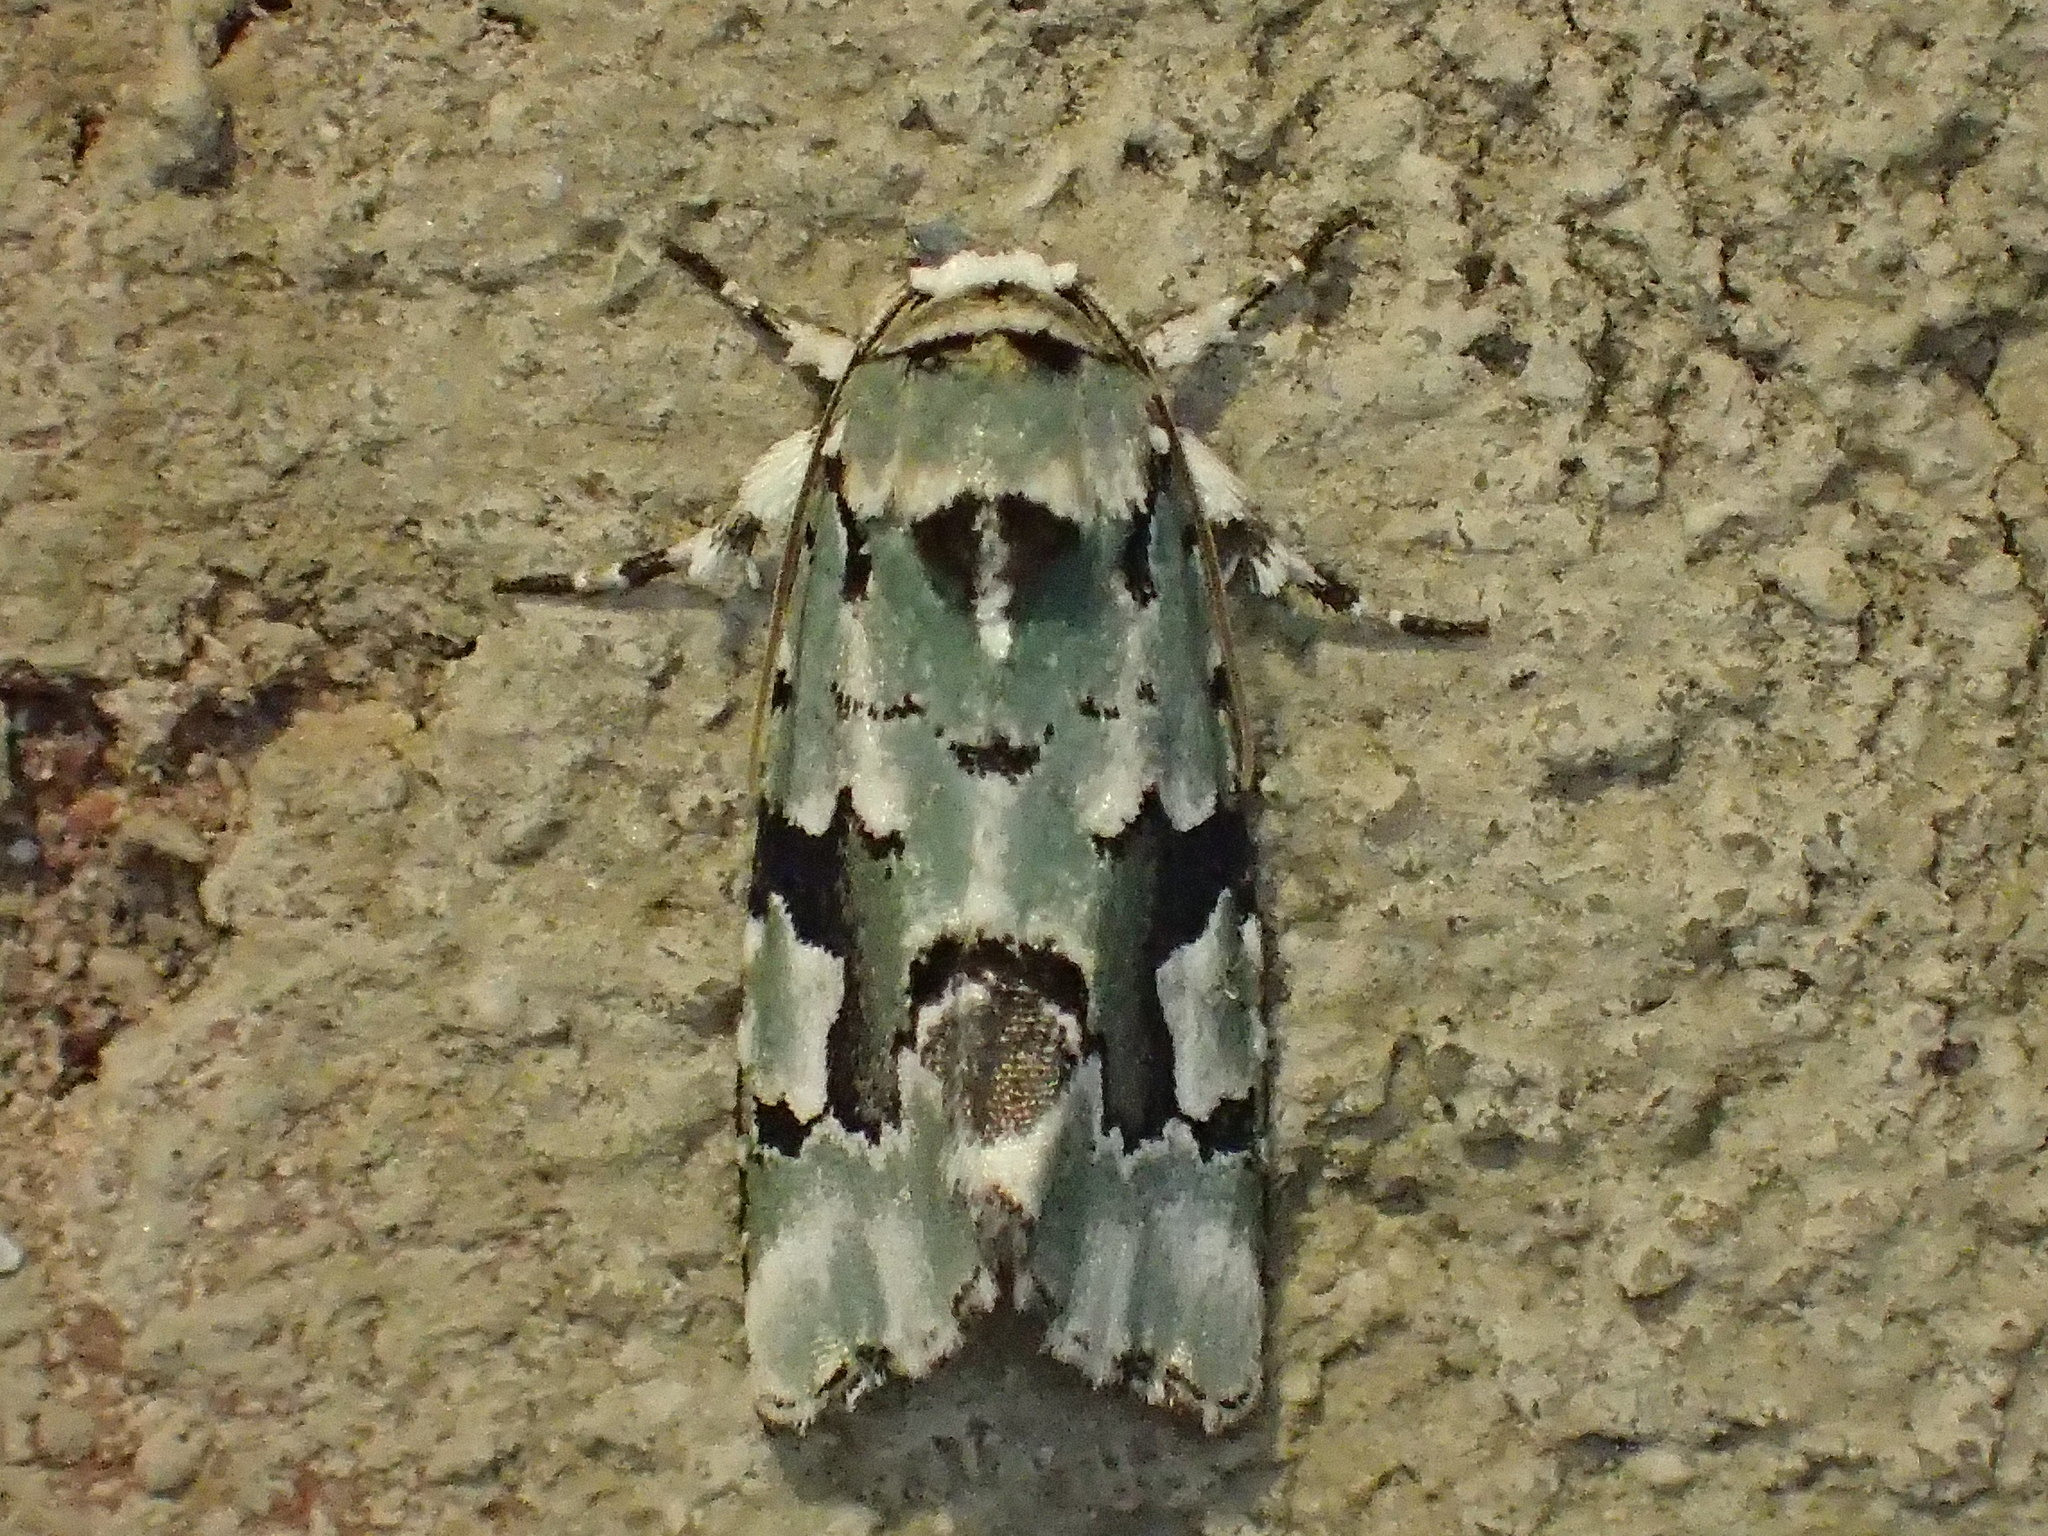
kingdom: Animalia
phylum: Arthropoda
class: Insecta
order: Lepidoptera
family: Noctuidae
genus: Emarginea
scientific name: Emarginea percara
